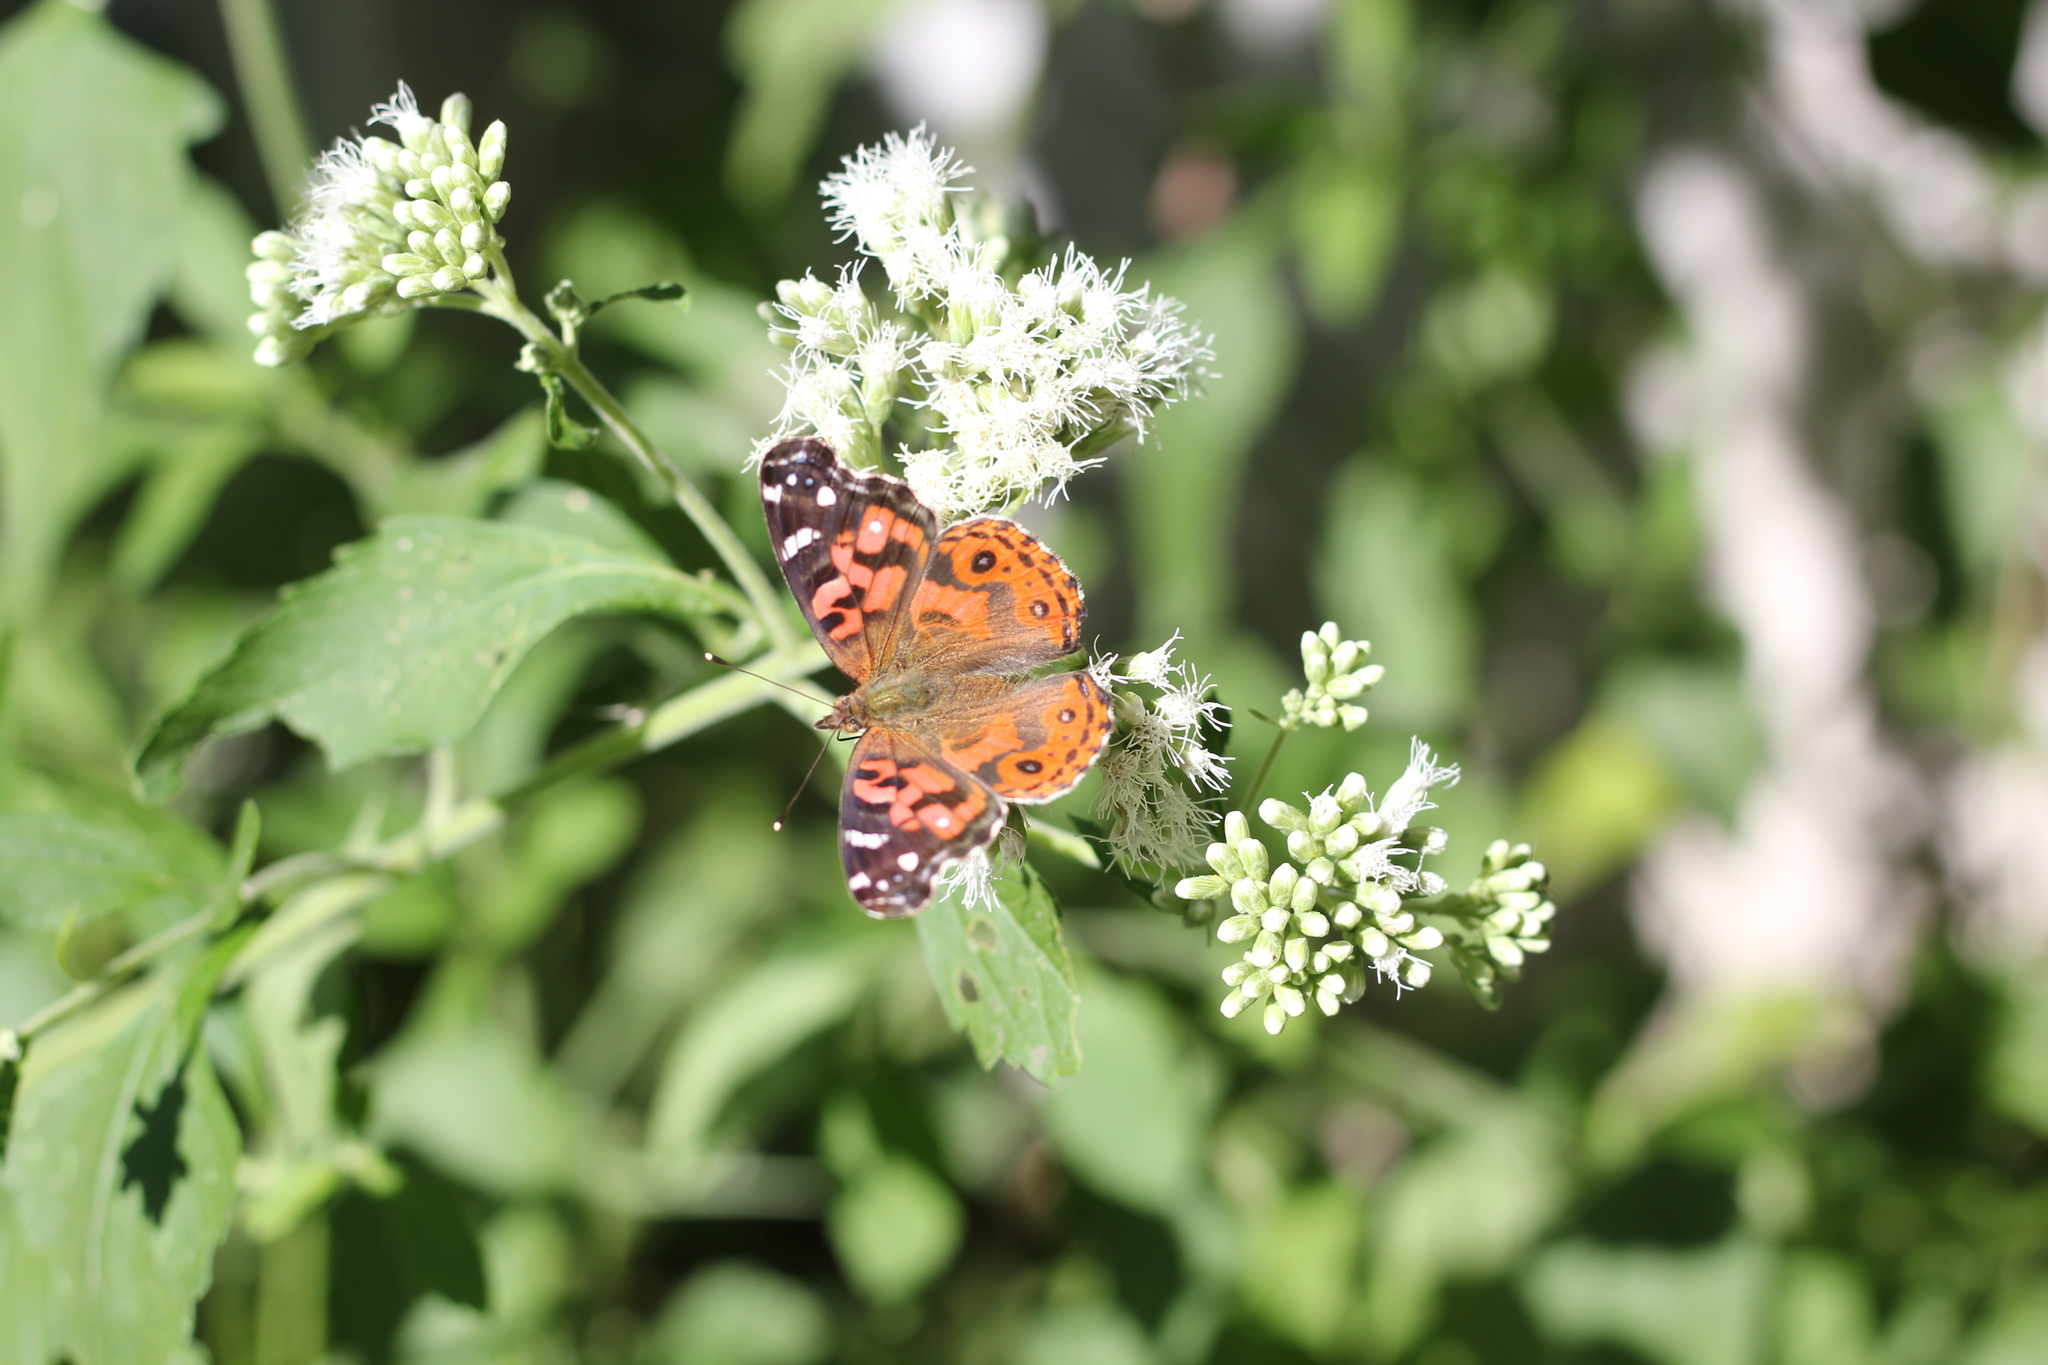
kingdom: Animalia
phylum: Arthropoda
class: Insecta
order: Lepidoptera
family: Nymphalidae
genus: Vanessa
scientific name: Vanessa braziliensis
